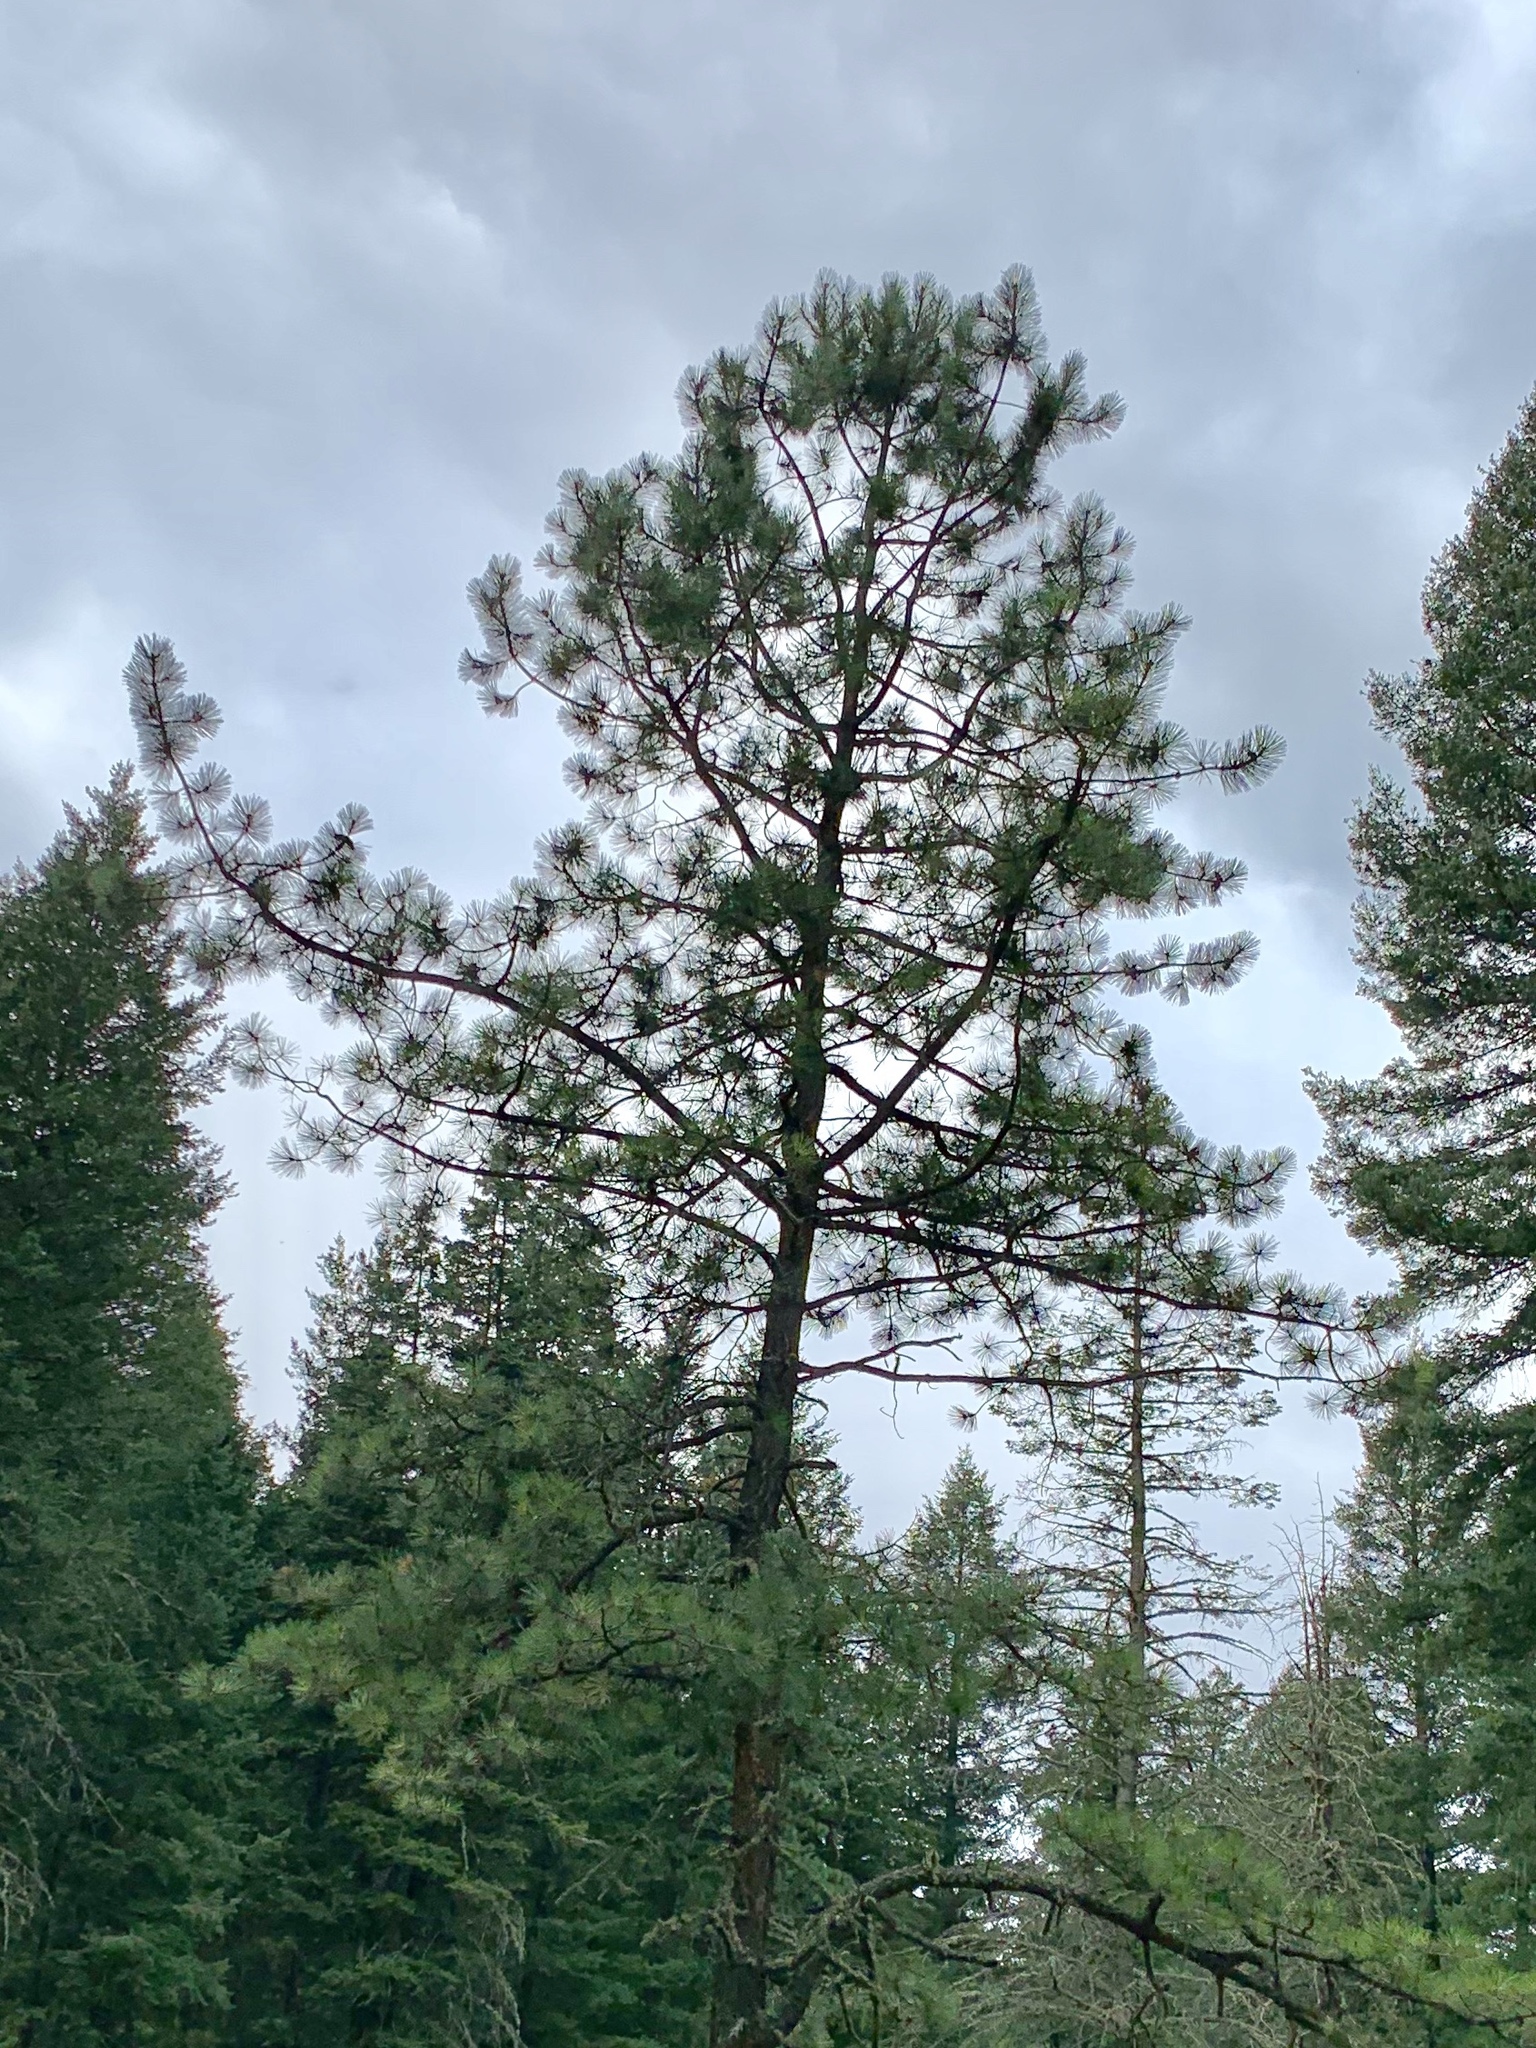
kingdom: Plantae
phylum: Tracheophyta
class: Pinopsida
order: Pinales
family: Pinaceae
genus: Pinus
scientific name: Pinus ponderosa
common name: Western yellow-pine
